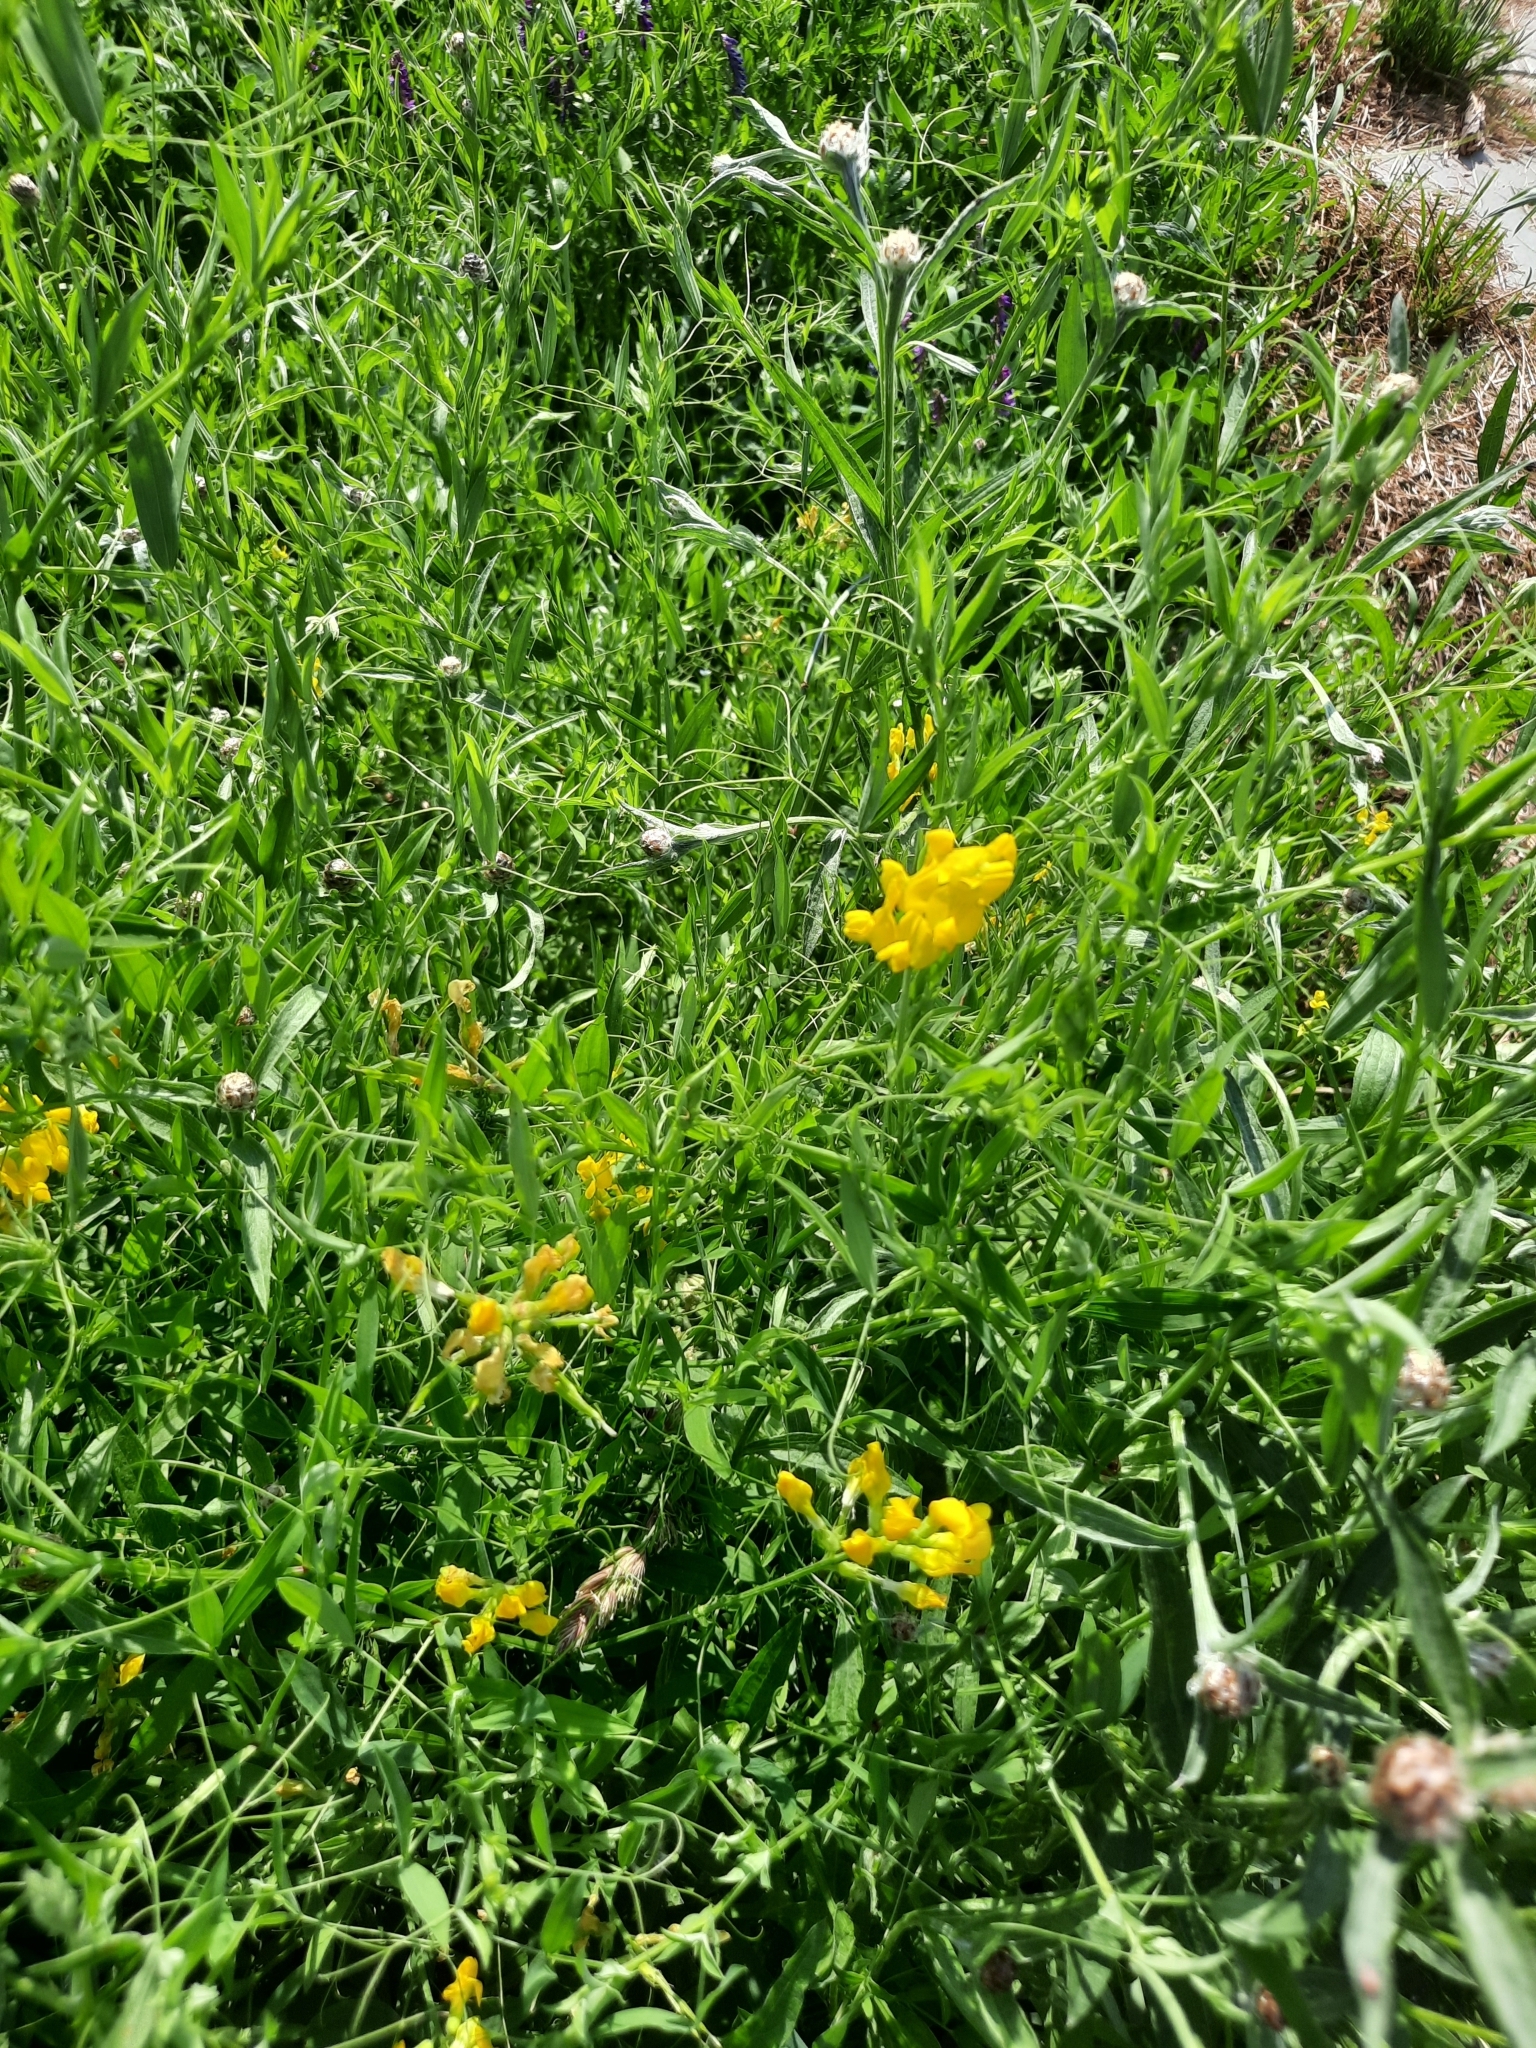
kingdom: Plantae
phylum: Tracheophyta
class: Magnoliopsida
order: Fabales
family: Fabaceae
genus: Lathyrus
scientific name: Lathyrus pratensis
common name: Meadow vetchling
